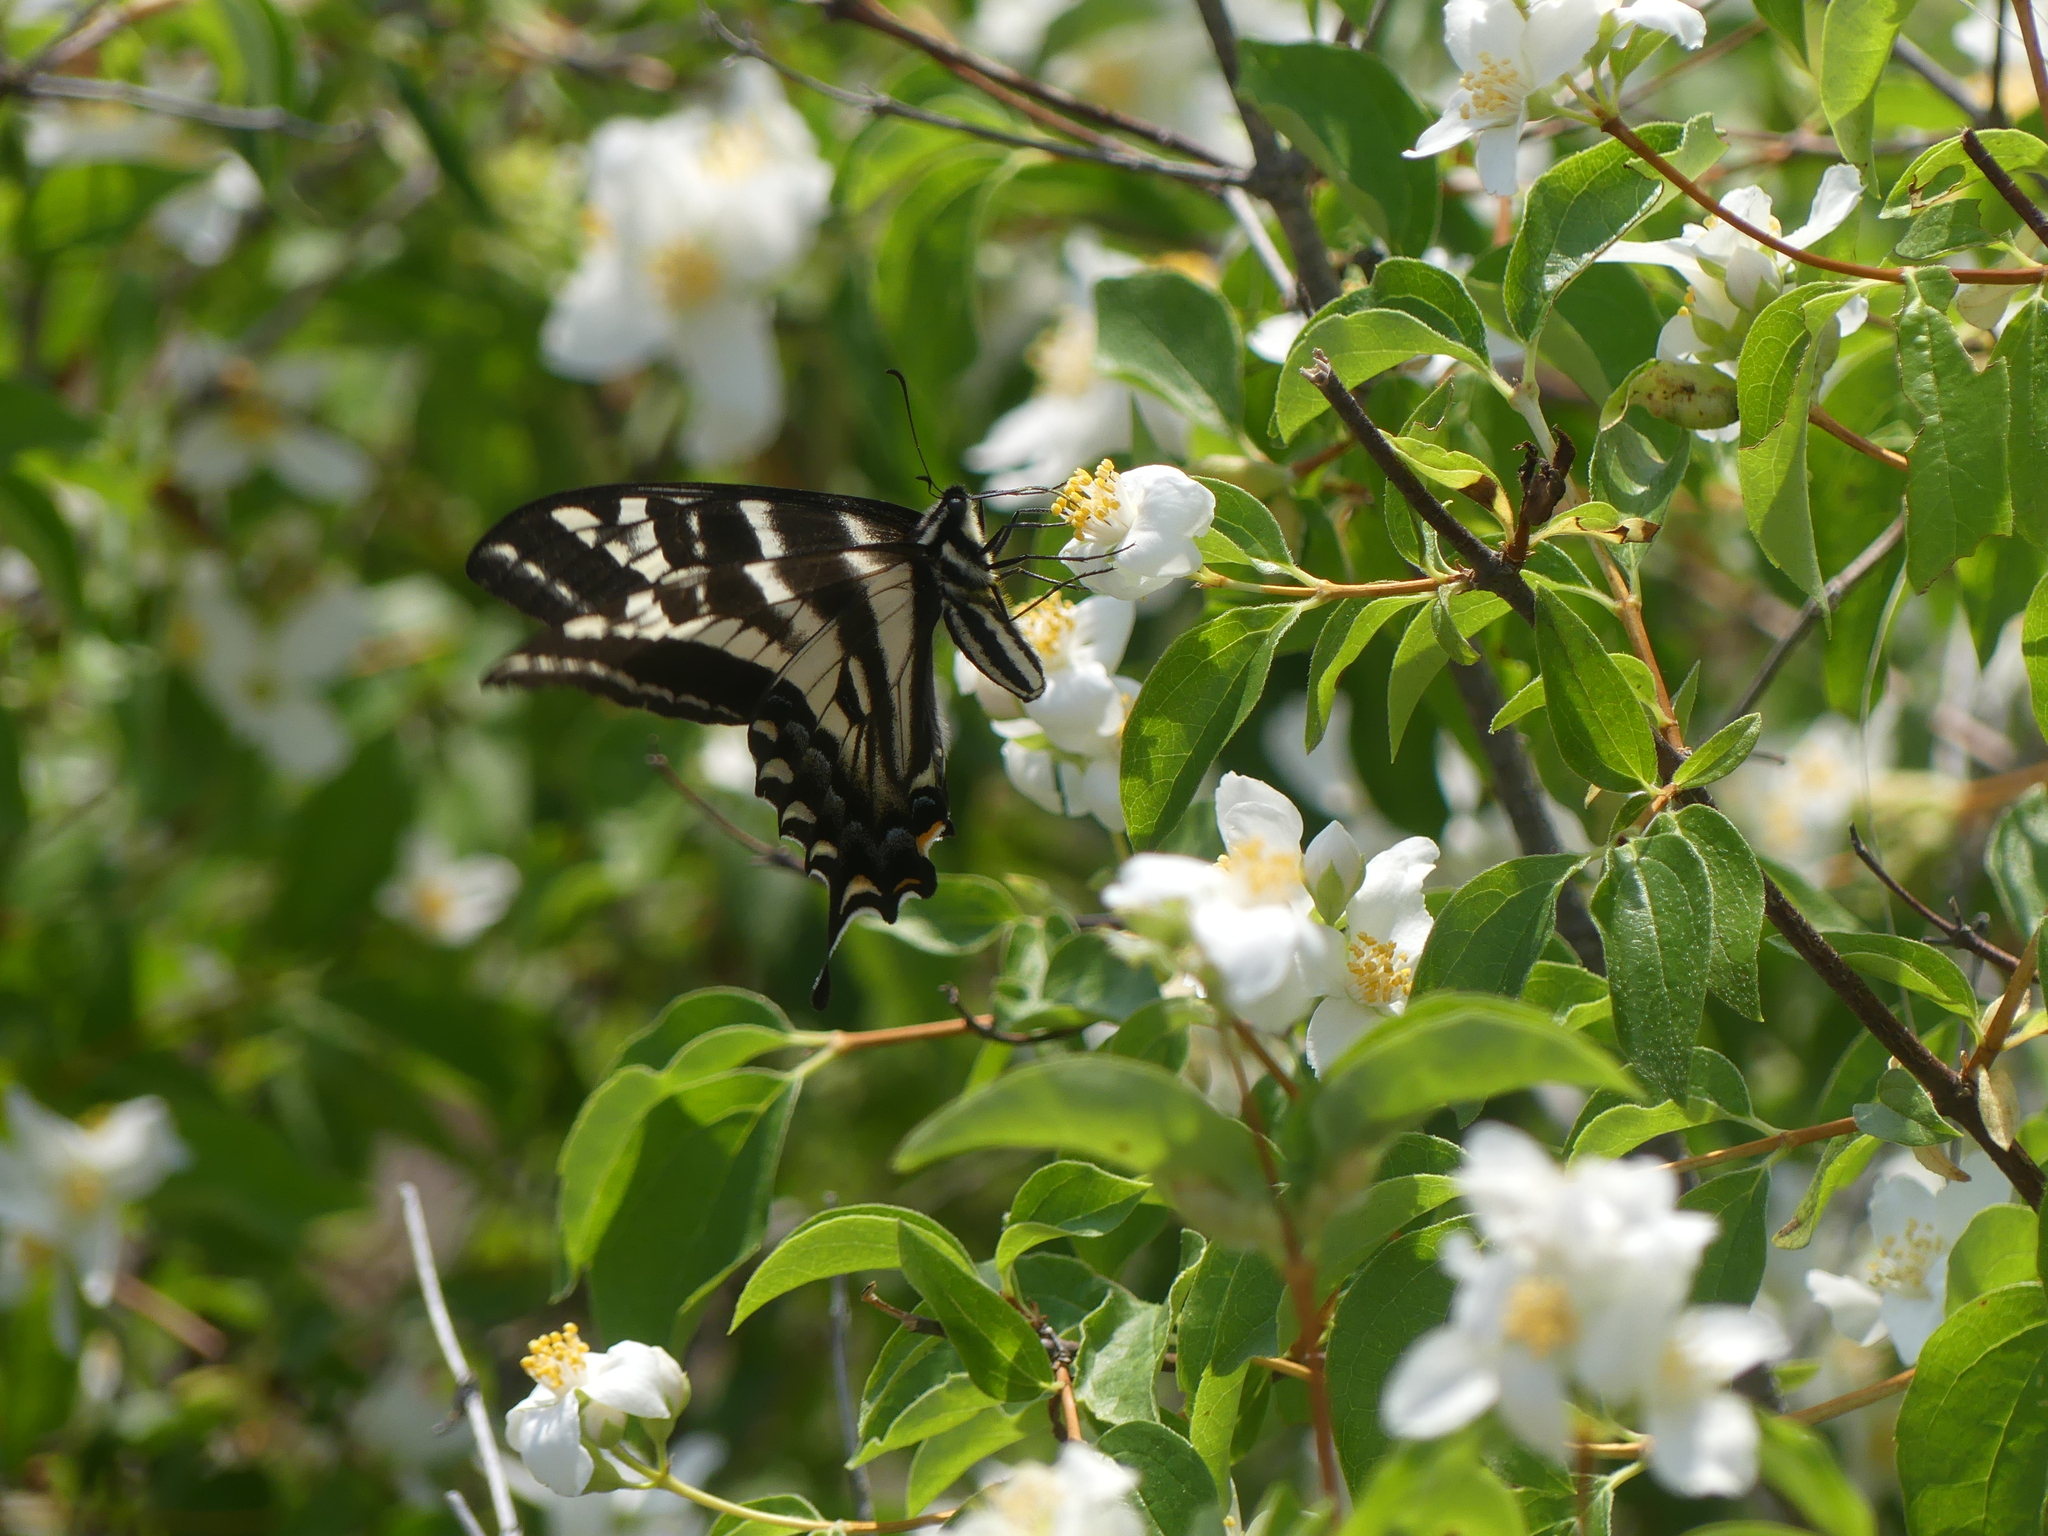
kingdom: Animalia
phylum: Arthropoda
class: Insecta
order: Lepidoptera
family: Papilionidae
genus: Papilio
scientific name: Papilio eurymedon
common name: Pale tiger swallowtail
